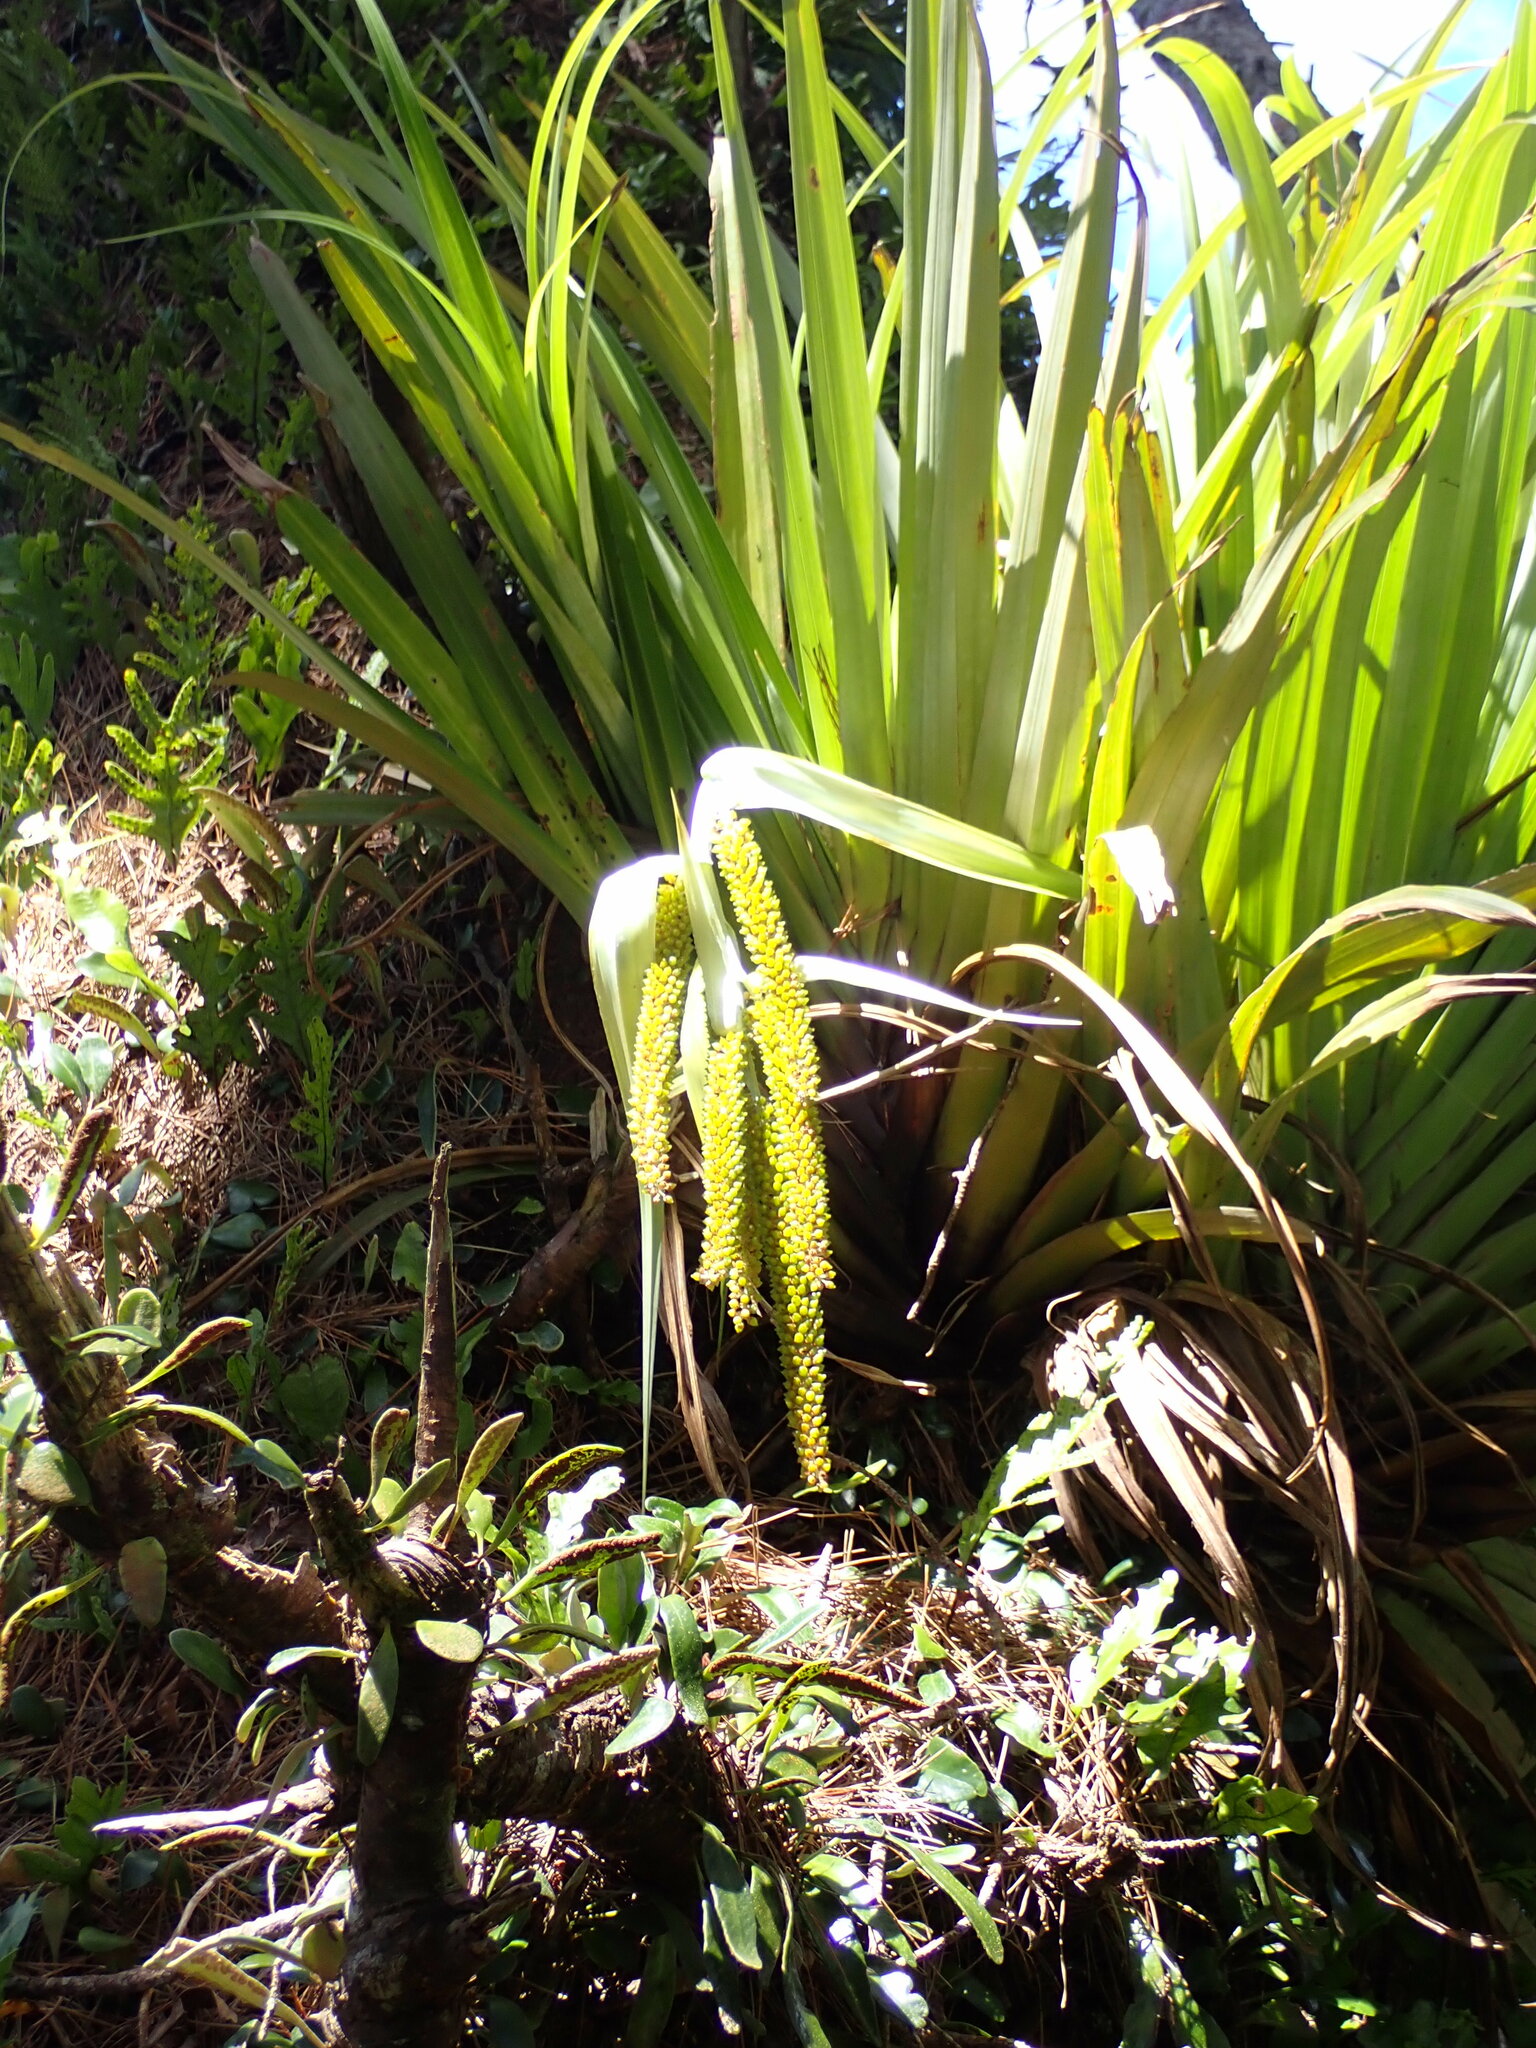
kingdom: Plantae
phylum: Tracheophyta
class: Liliopsida
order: Asparagales
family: Asteliaceae
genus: Astelia
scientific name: Astelia hastata
